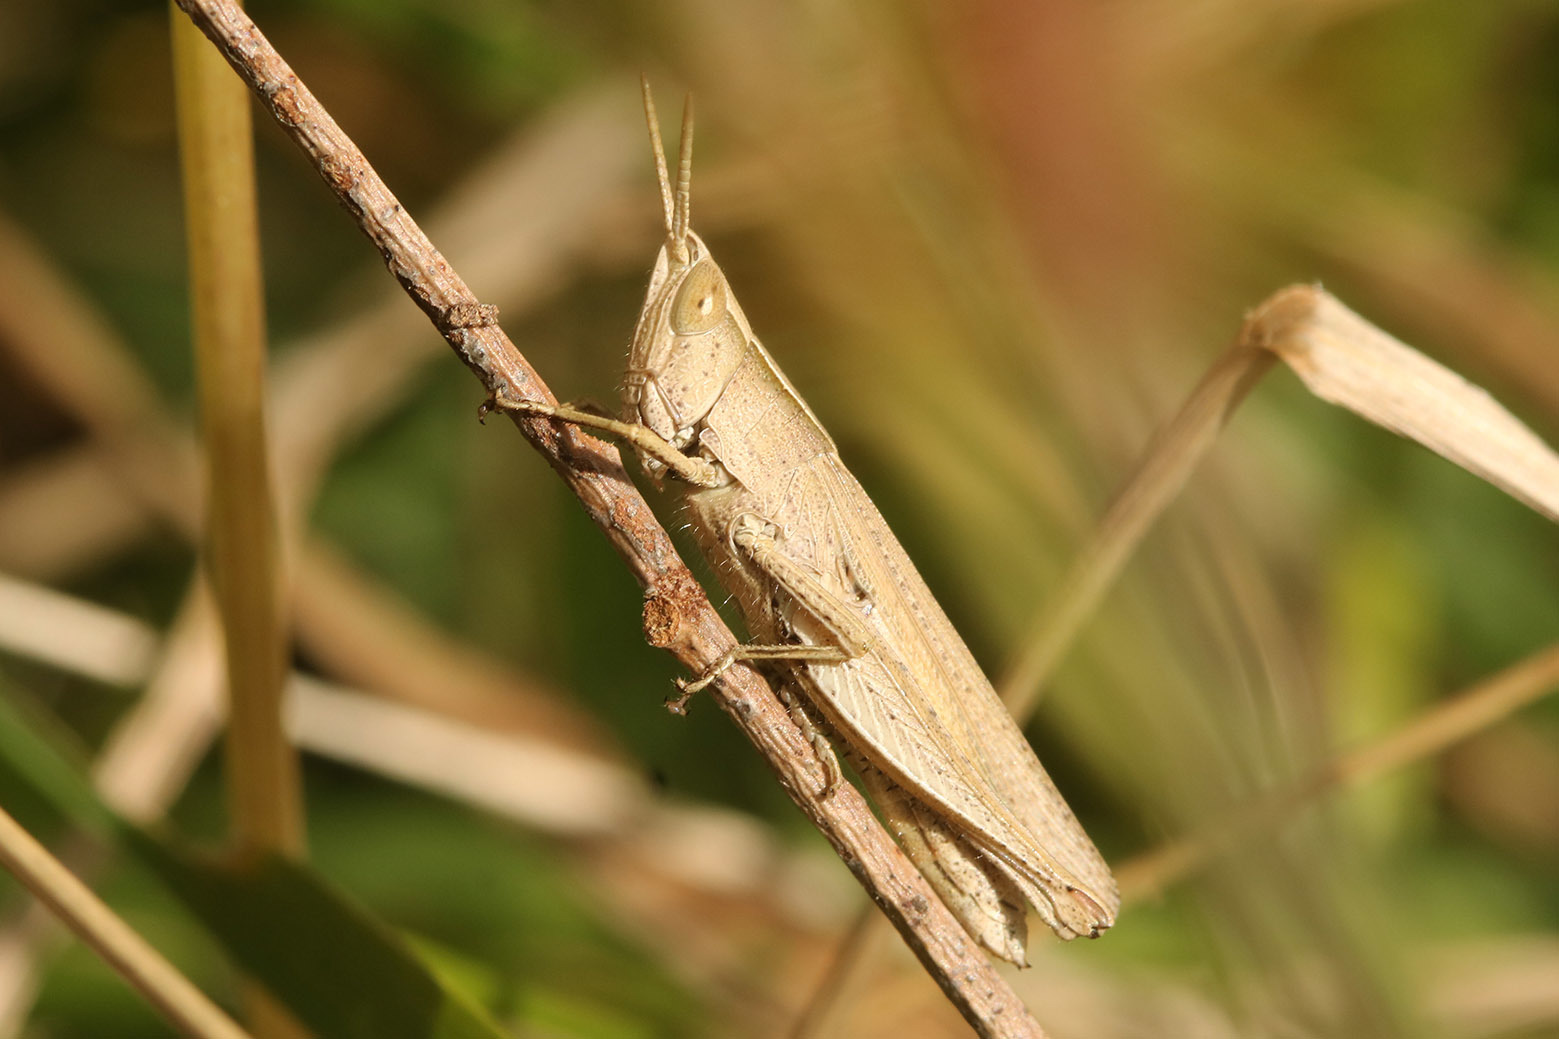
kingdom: Animalia
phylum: Arthropoda
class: Insecta
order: Orthoptera
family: Acrididae
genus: Laplatacris
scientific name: Laplatacris dispar
